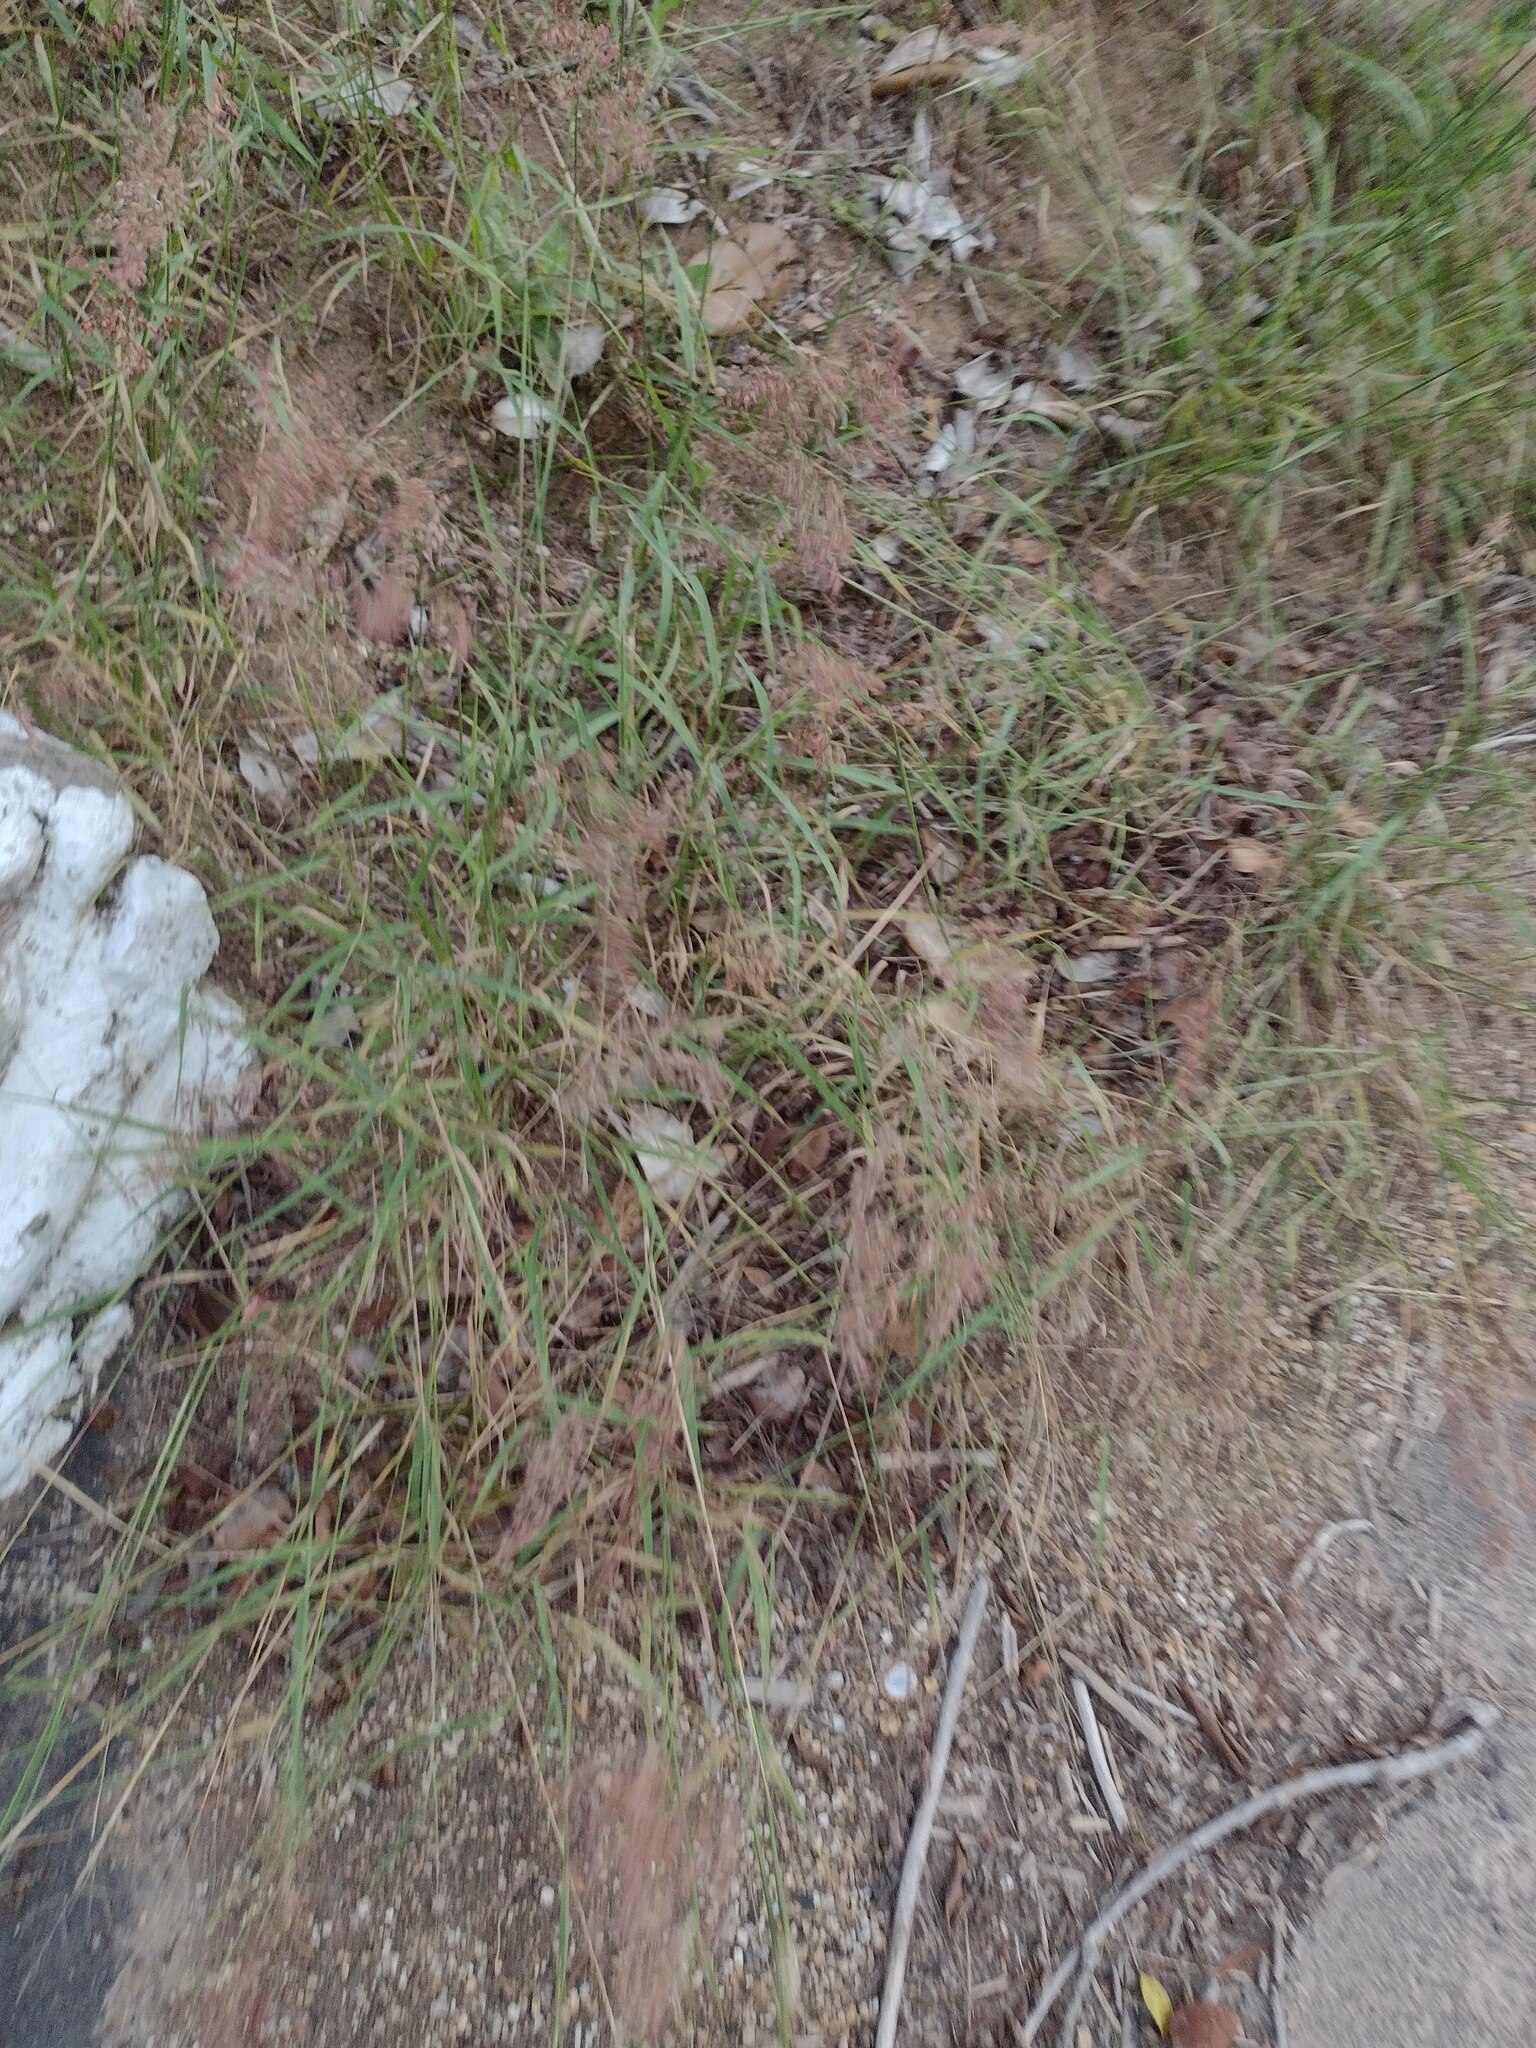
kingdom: Plantae
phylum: Tracheophyta
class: Liliopsida
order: Poales
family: Poaceae
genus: Melinis
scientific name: Melinis repens
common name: Rose natal grass
